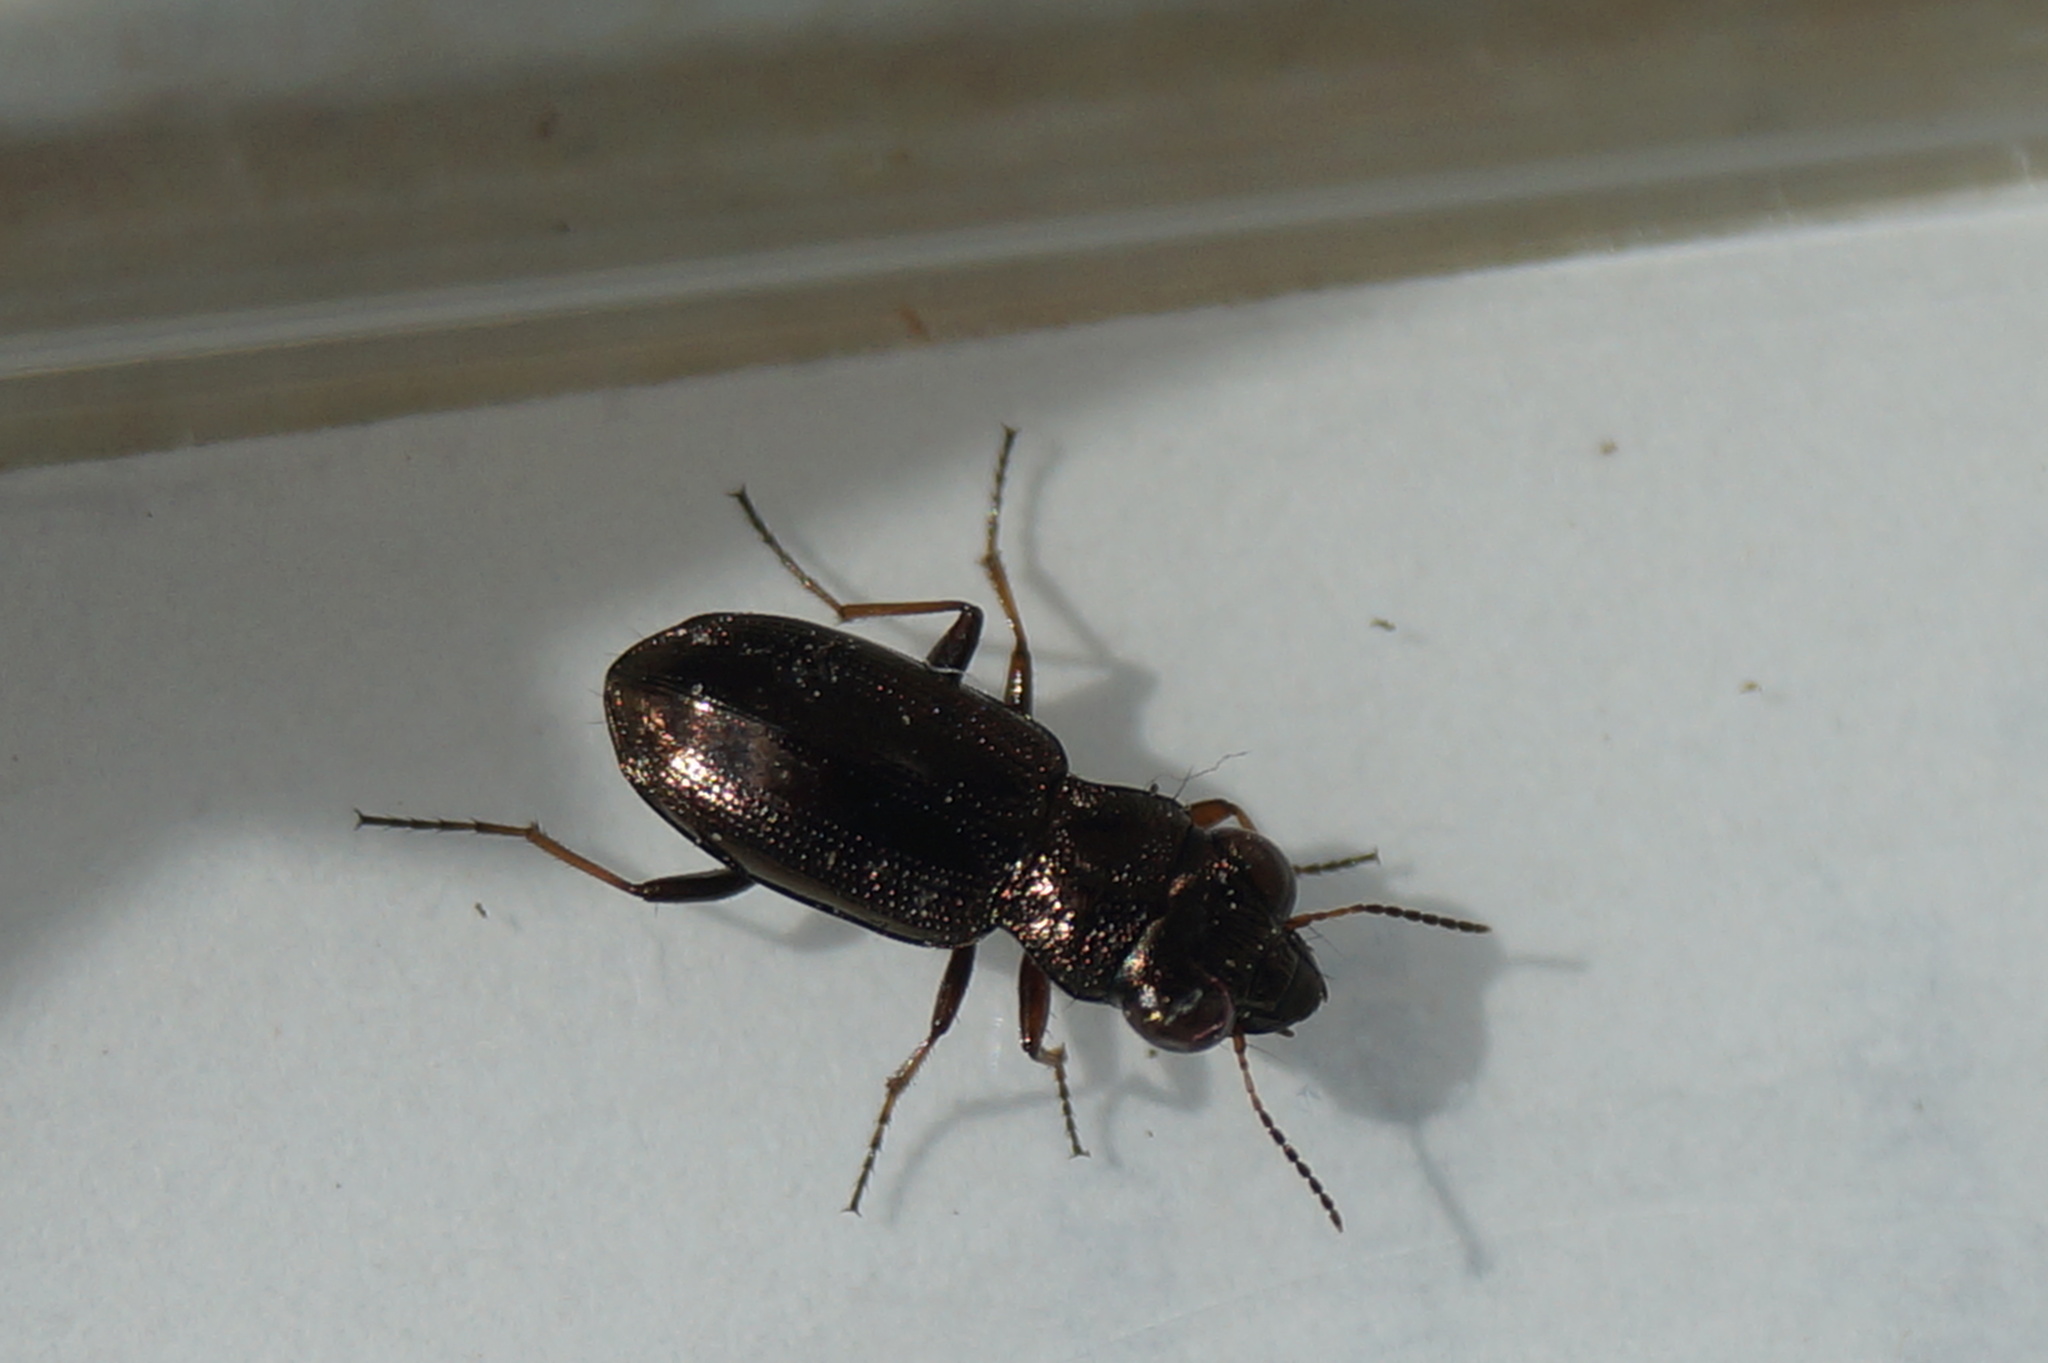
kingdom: Animalia
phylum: Arthropoda
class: Insecta
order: Coleoptera
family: Carabidae
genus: Notiophilus
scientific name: Notiophilus rufipes
